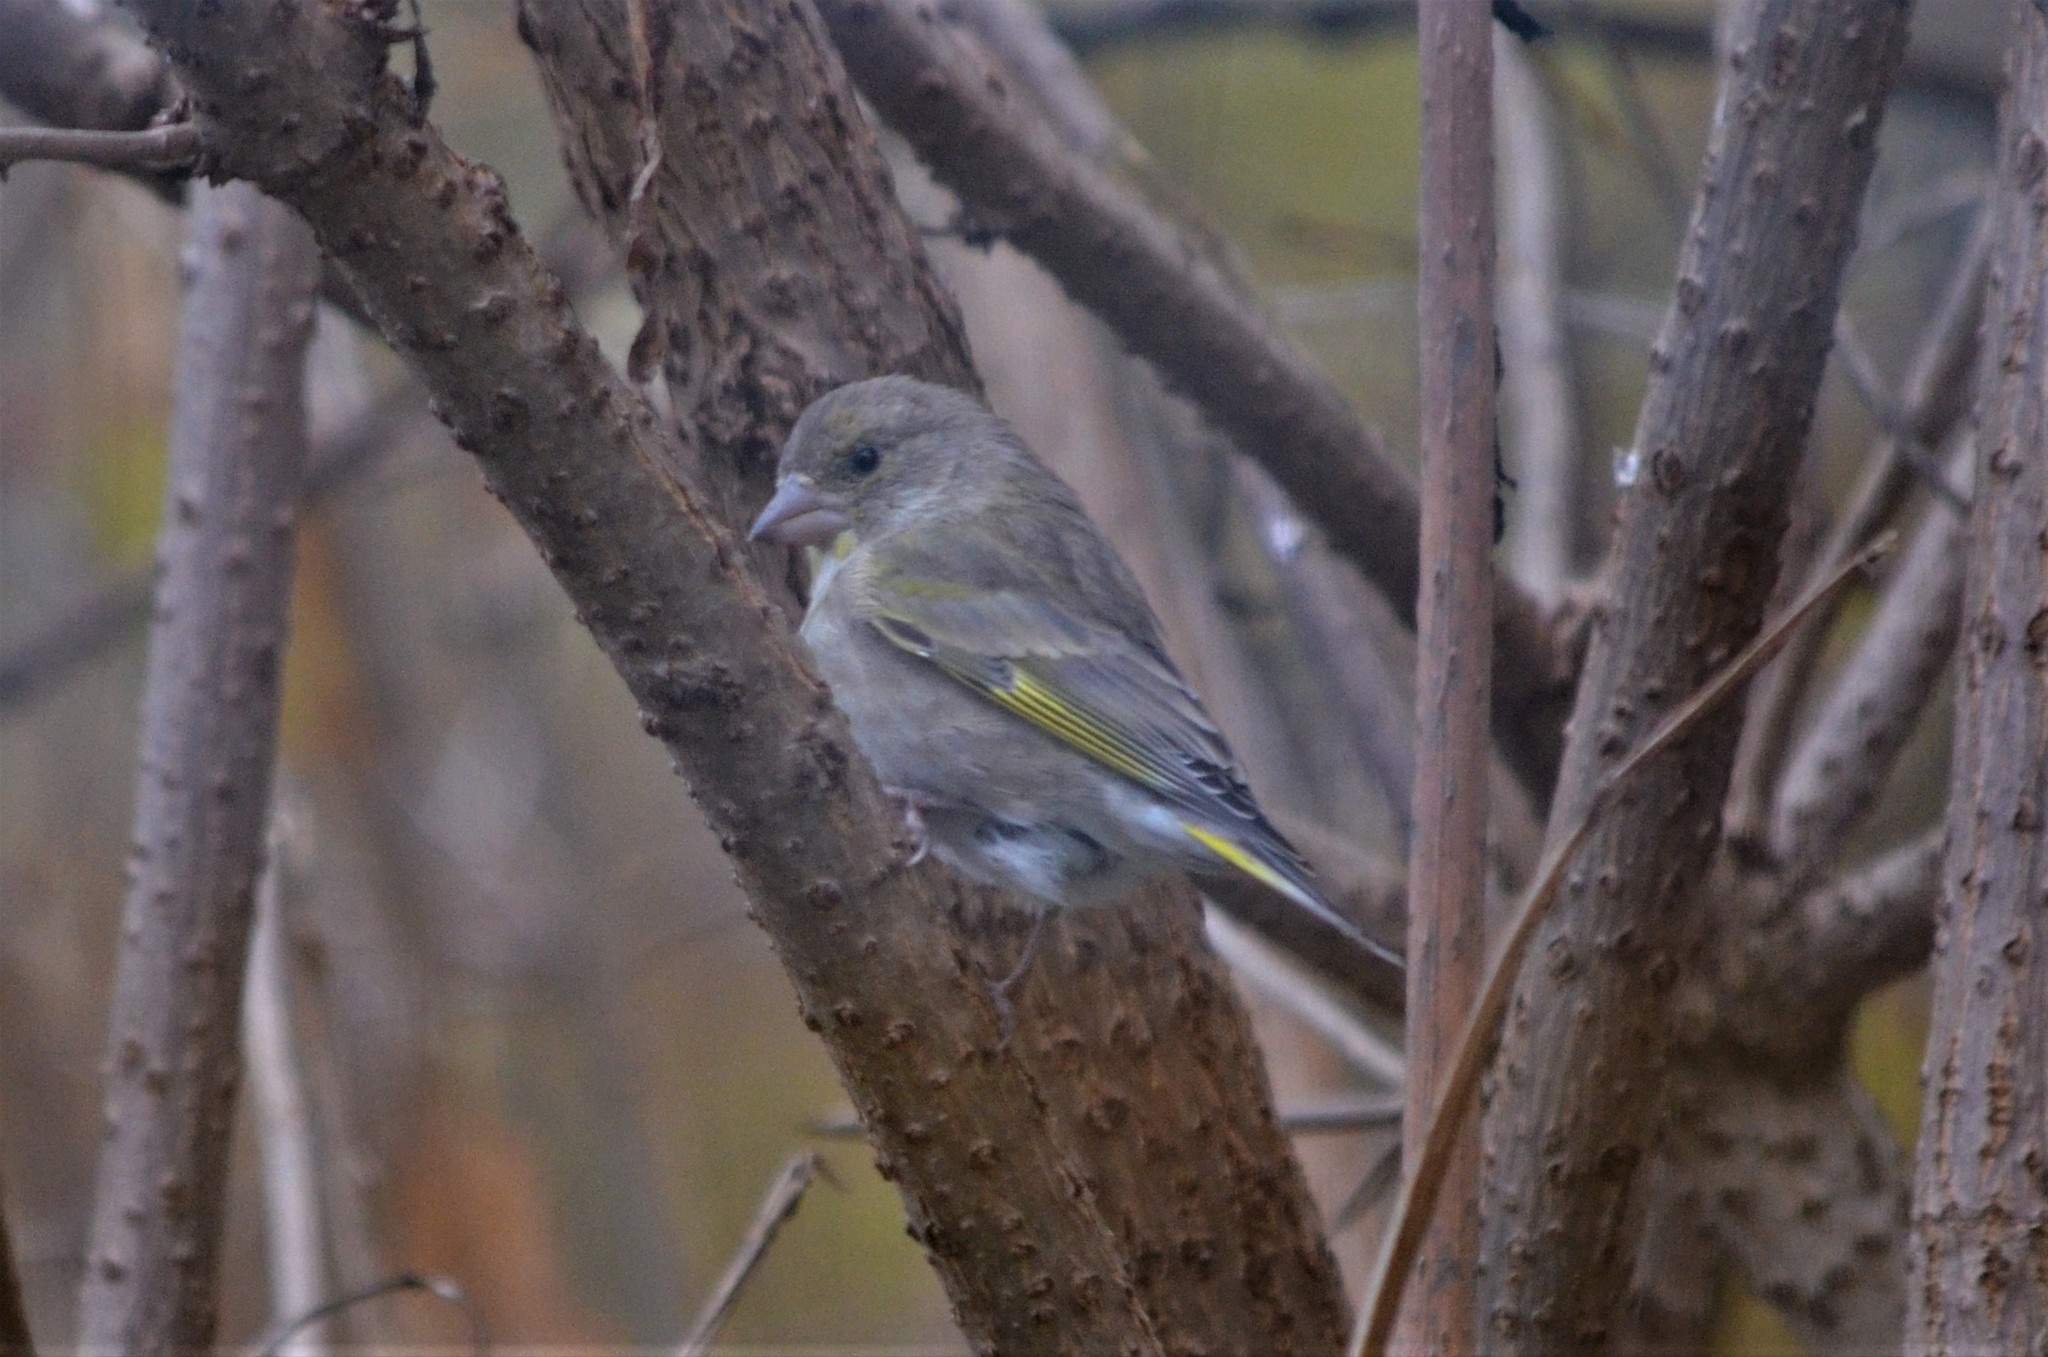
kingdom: Plantae
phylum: Tracheophyta
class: Liliopsida
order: Poales
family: Poaceae
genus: Chloris
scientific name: Chloris chloris
